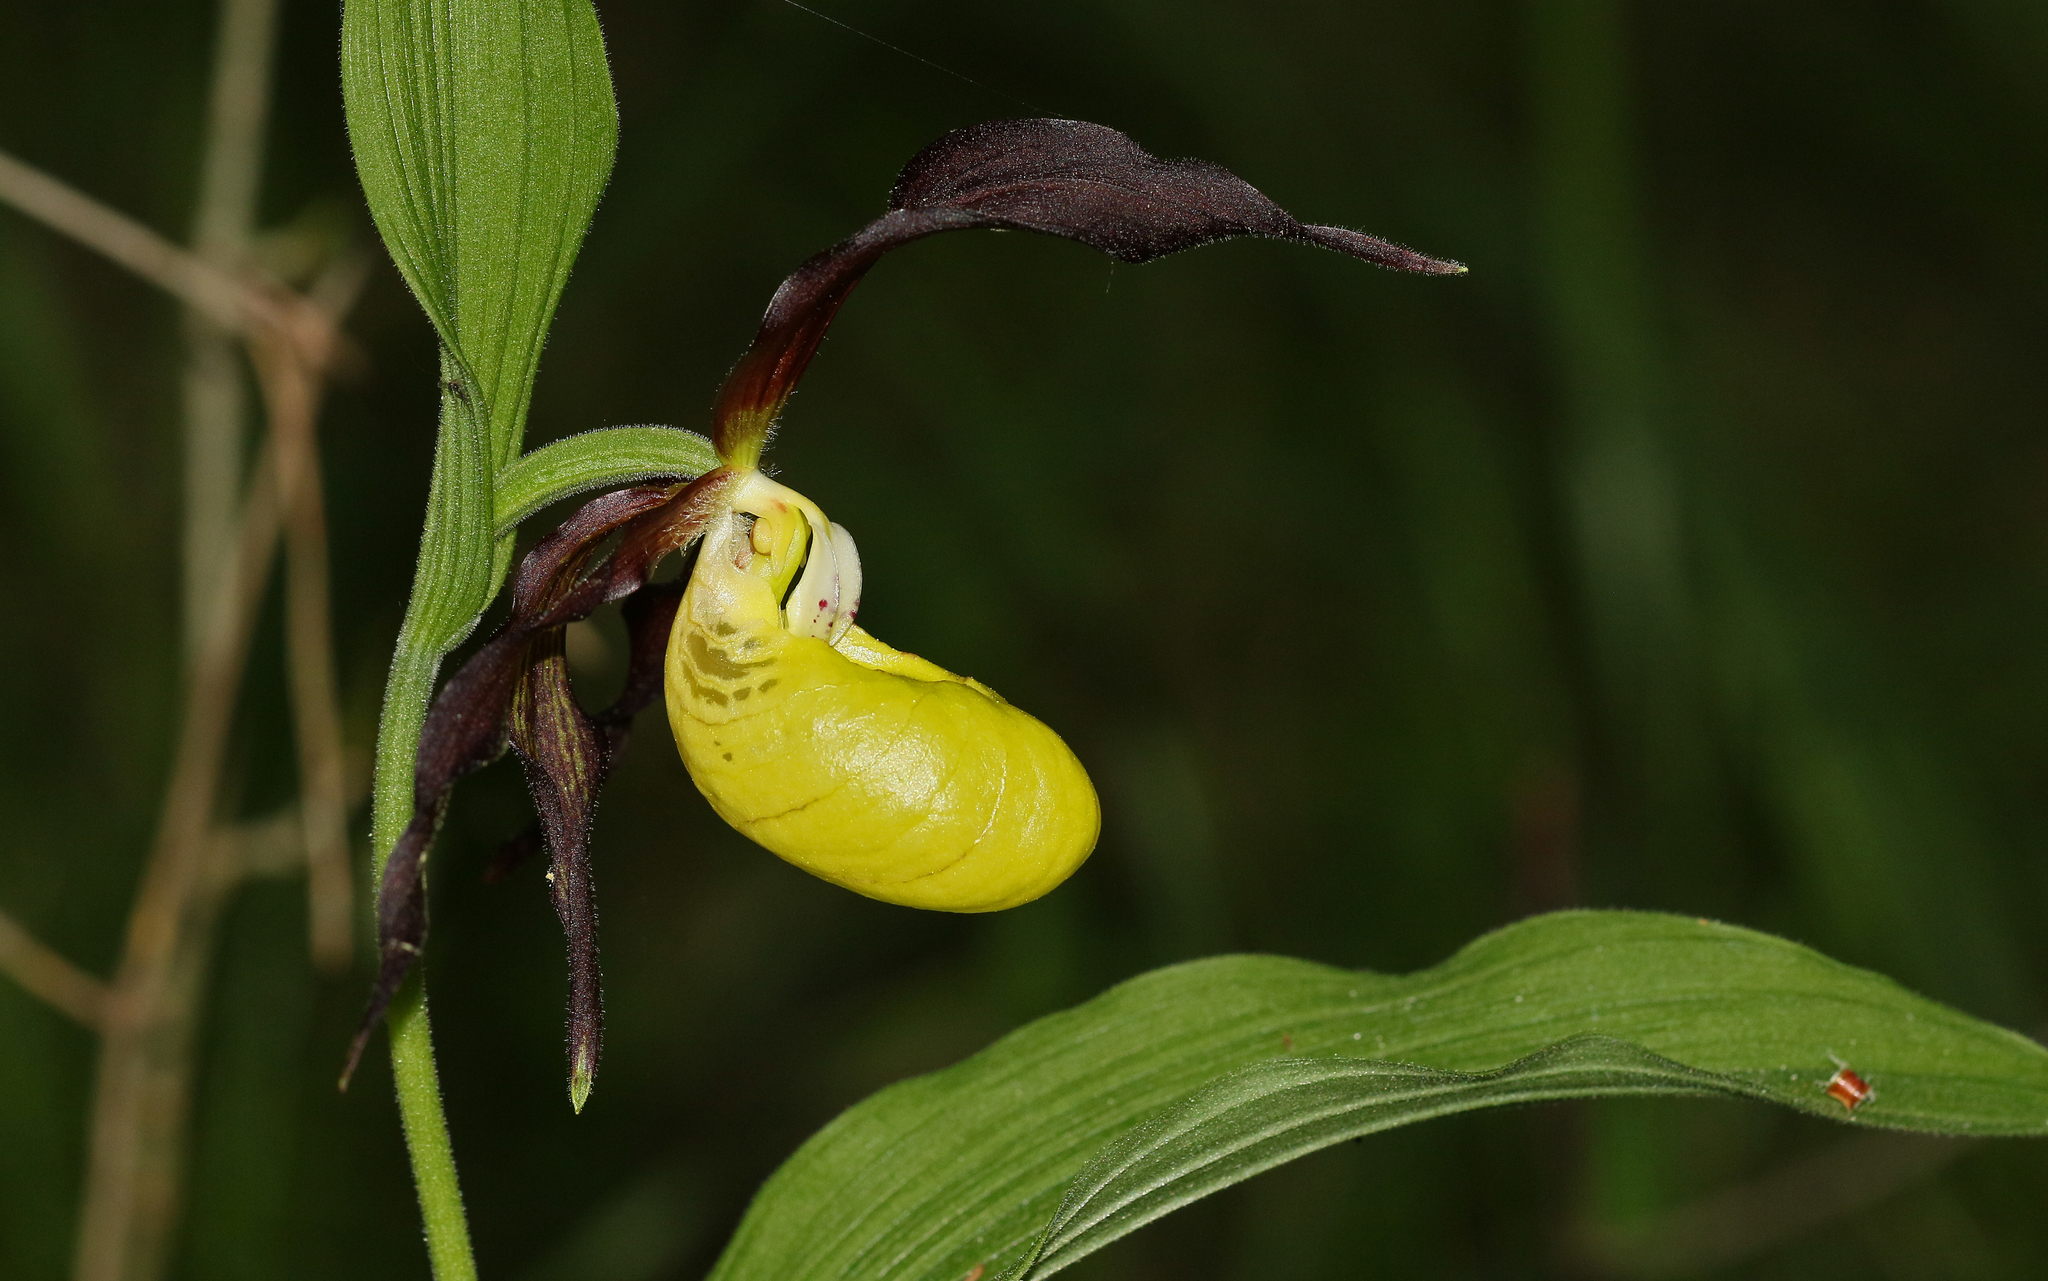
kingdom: Plantae
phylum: Tracheophyta
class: Liliopsida
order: Asparagales
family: Orchidaceae
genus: Cypripedium
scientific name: Cypripedium calceolus
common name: Lady's-slipper
